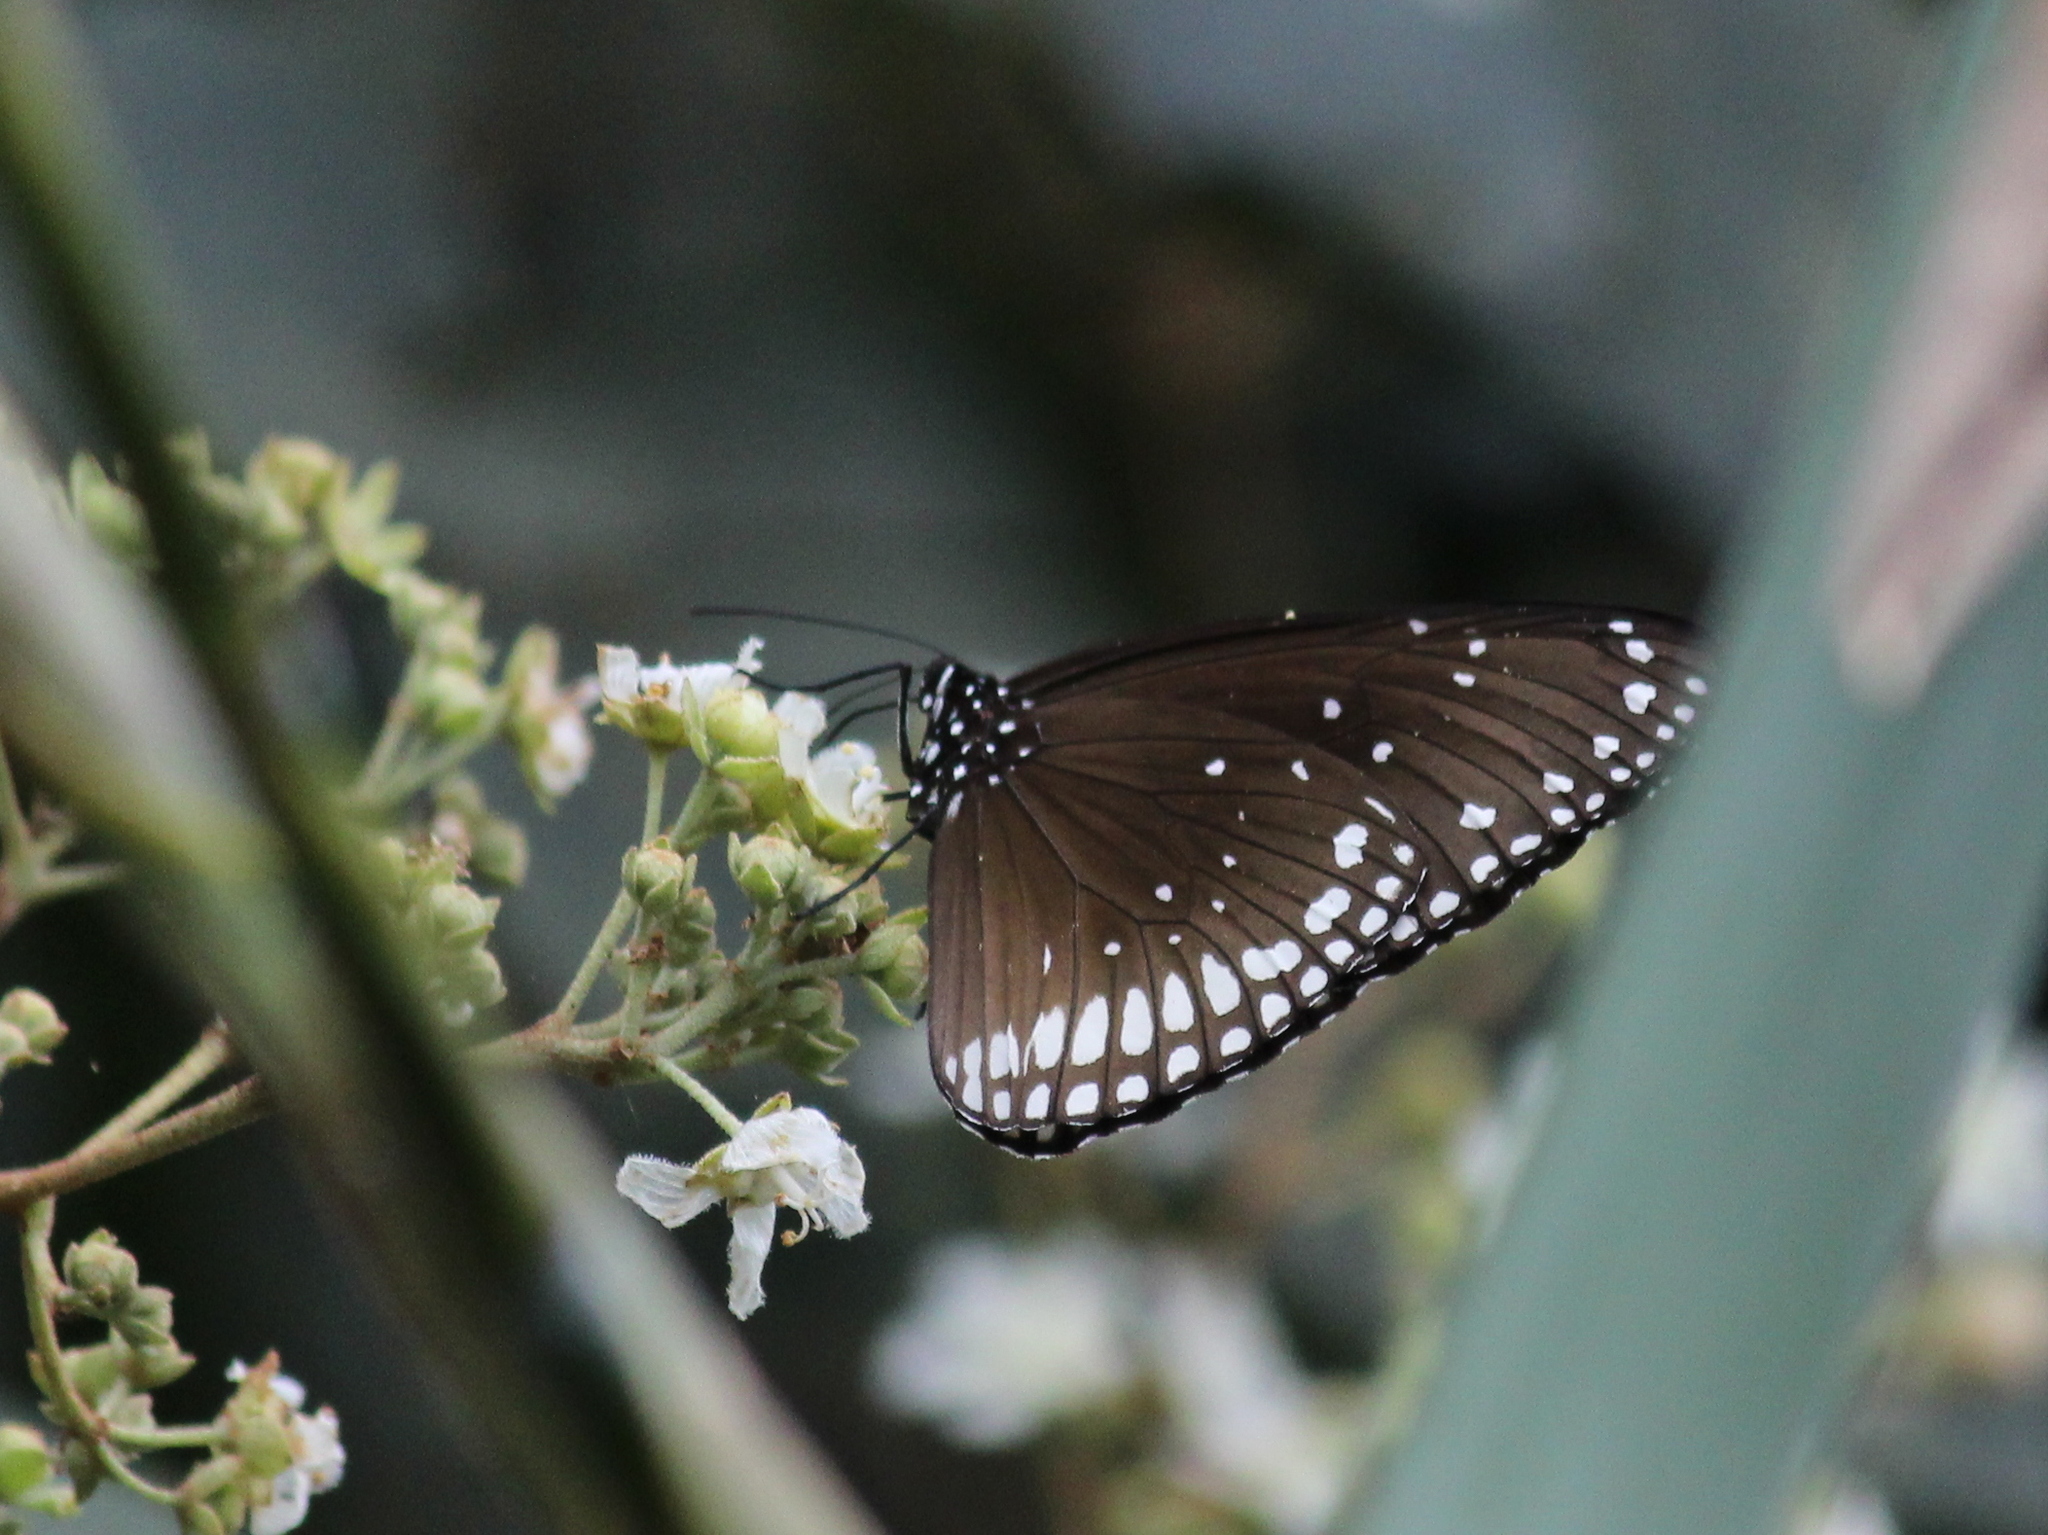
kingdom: Animalia
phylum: Arthropoda
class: Insecta
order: Lepidoptera
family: Nymphalidae
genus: Euploea
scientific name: Euploea sylvester
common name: Double-branded crow butterfly
